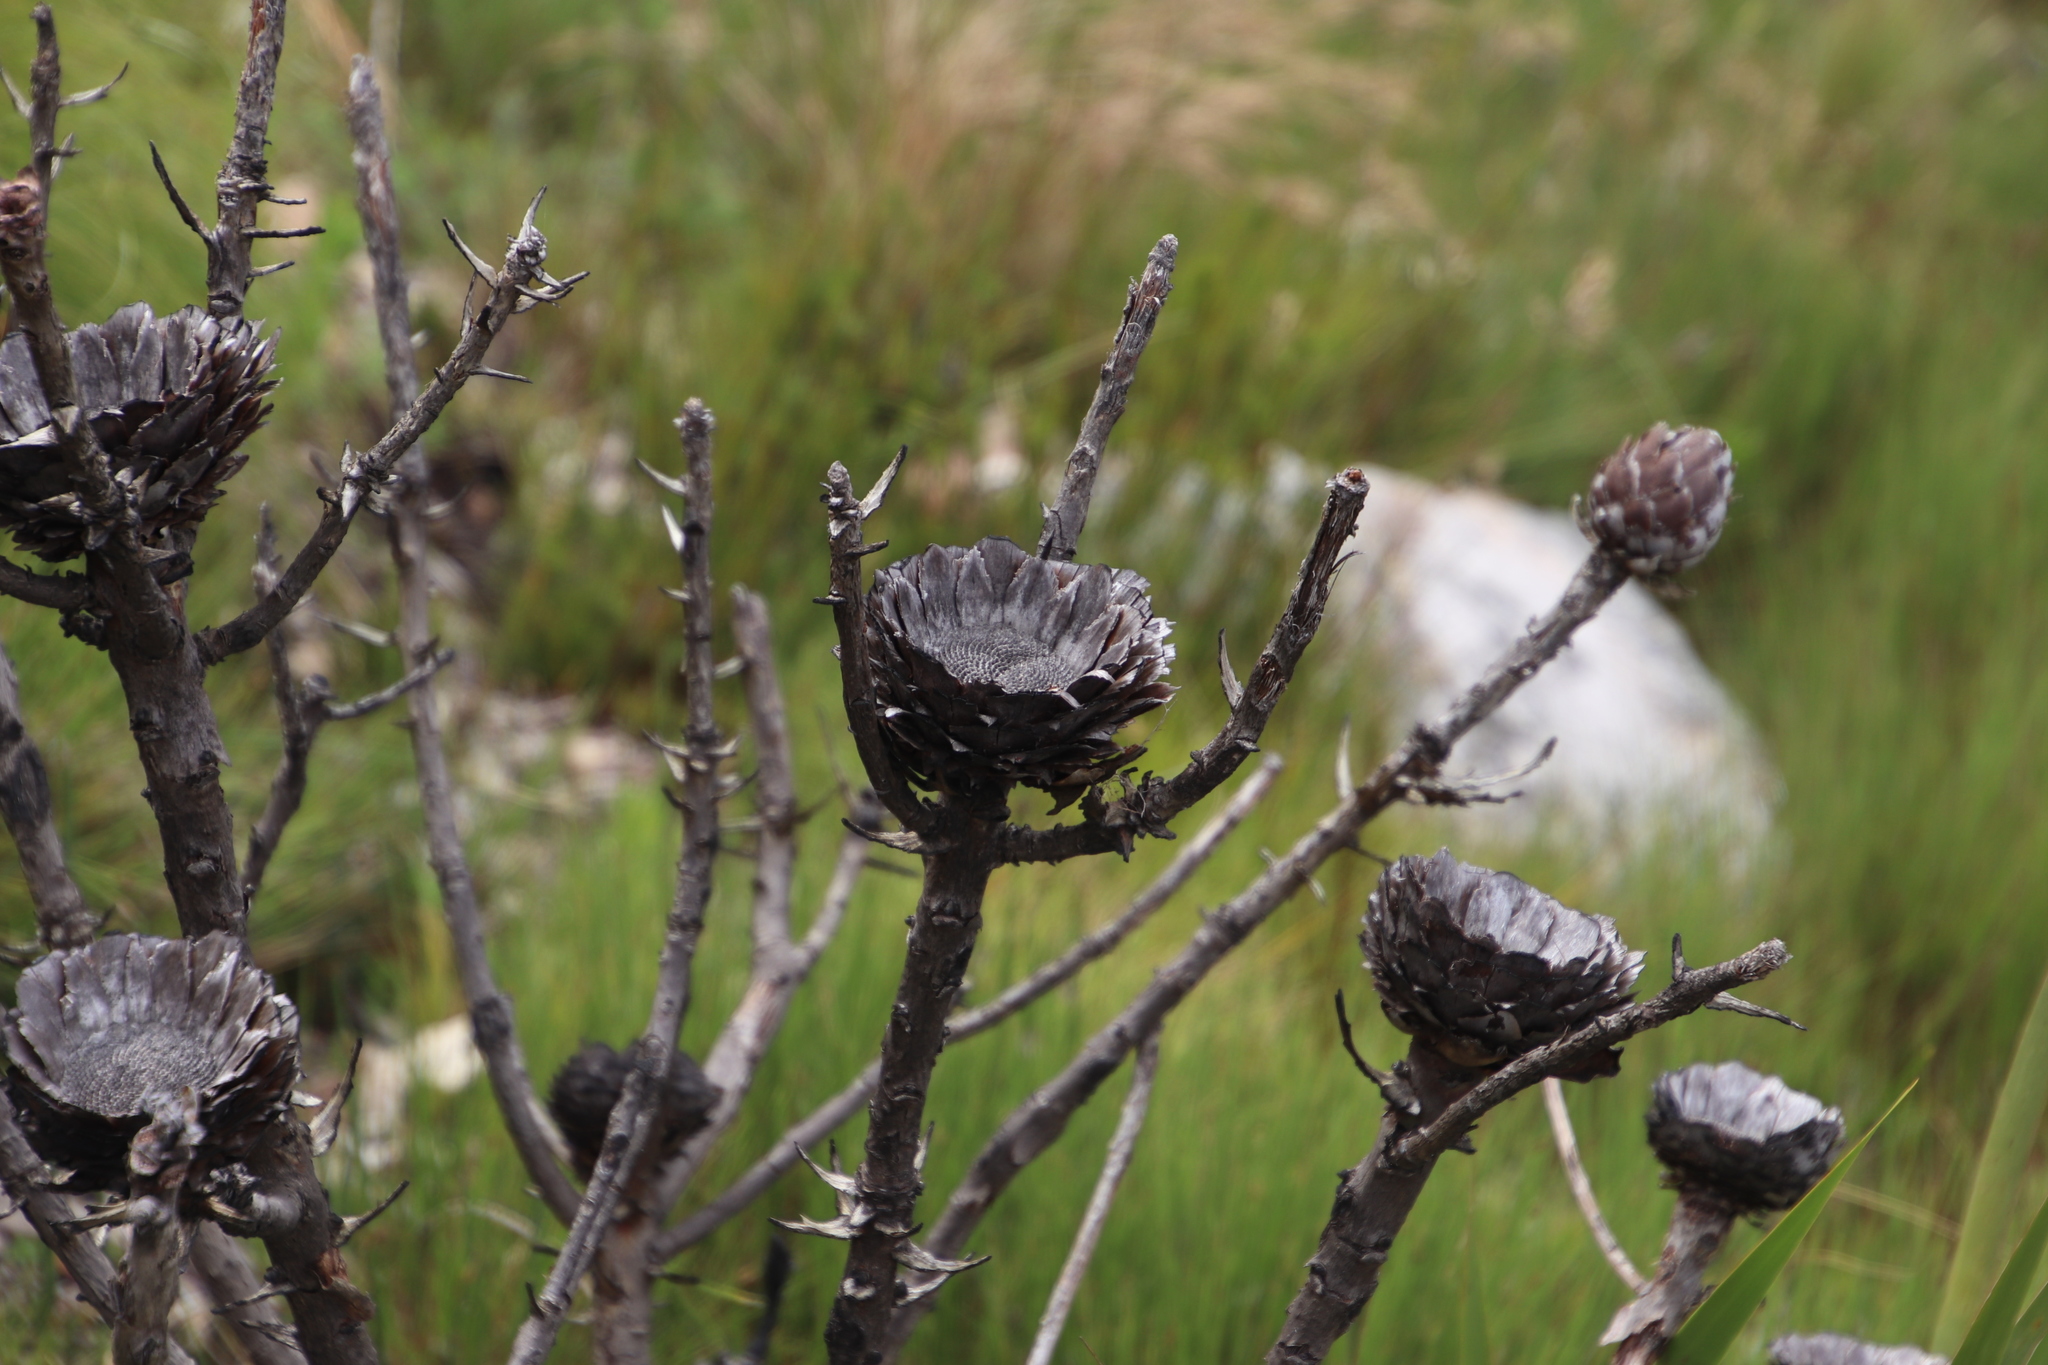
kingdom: Plantae
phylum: Tracheophyta
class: Magnoliopsida
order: Proteales
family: Proteaceae
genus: Protea
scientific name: Protea laurifolia
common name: Grey-leaf sugarbsh
